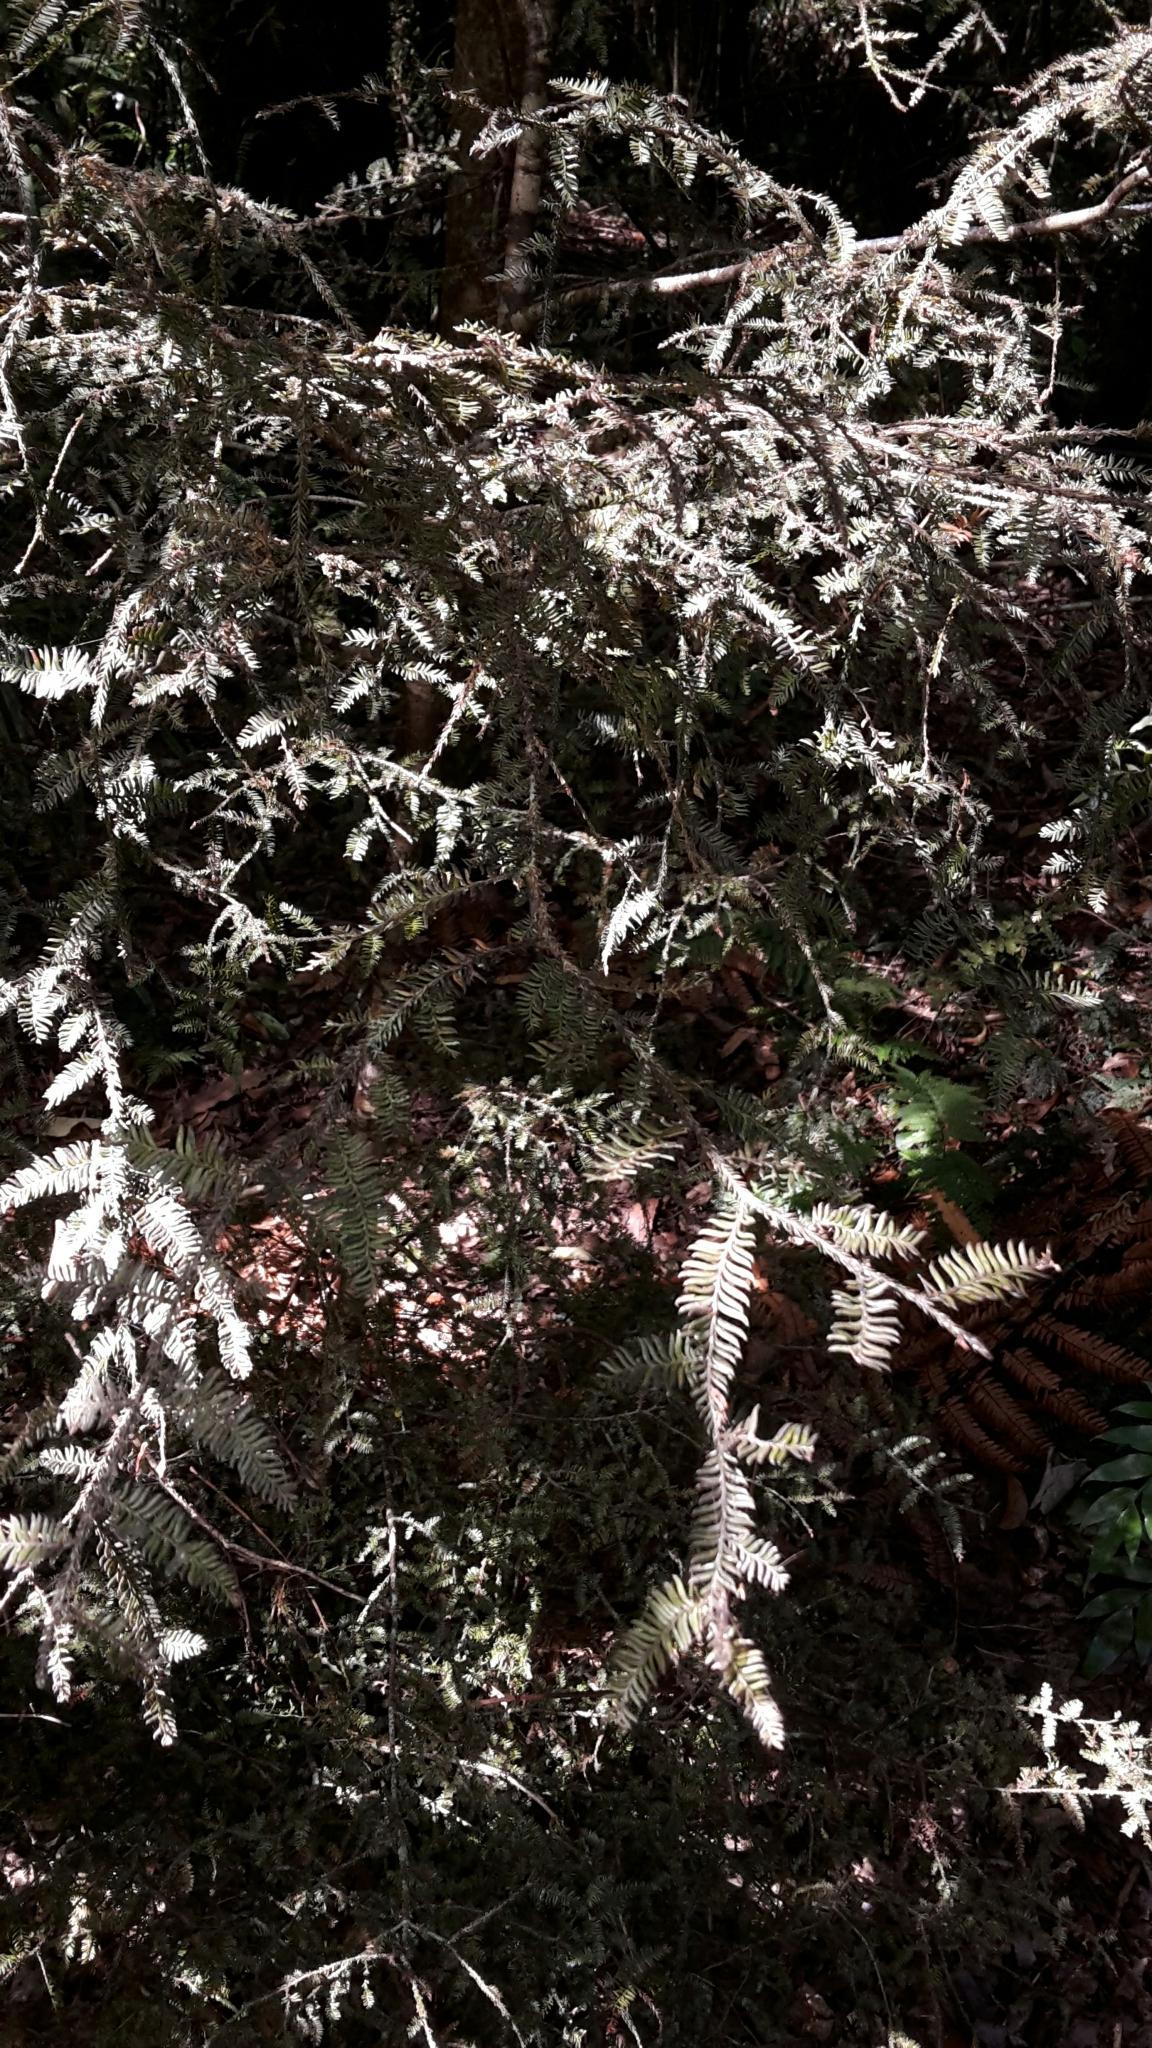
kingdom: Plantae
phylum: Tracheophyta
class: Pinopsida
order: Pinales
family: Podocarpaceae
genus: Dacrycarpus
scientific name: Dacrycarpus dacrydioides
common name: White pine
